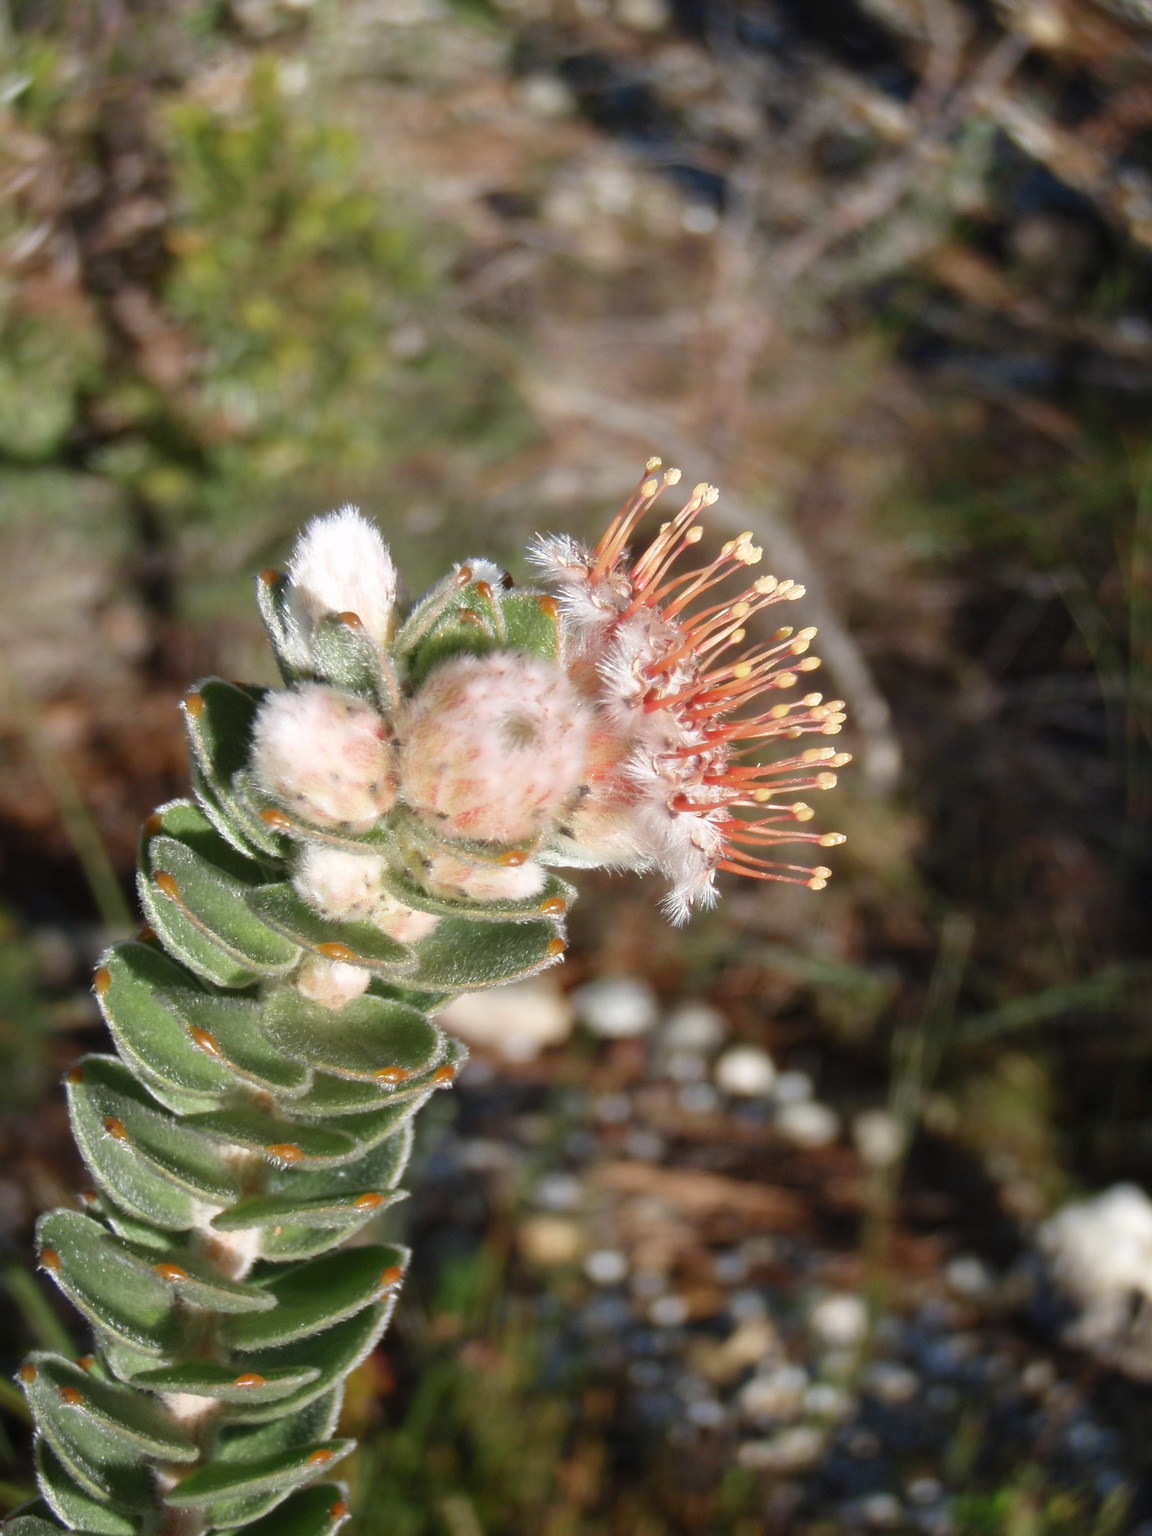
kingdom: Plantae
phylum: Tracheophyta
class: Magnoliopsida
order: Proteales
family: Proteaceae
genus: Leucospermum
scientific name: Leucospermum truncatulum
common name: Oval-leaf pincushion
